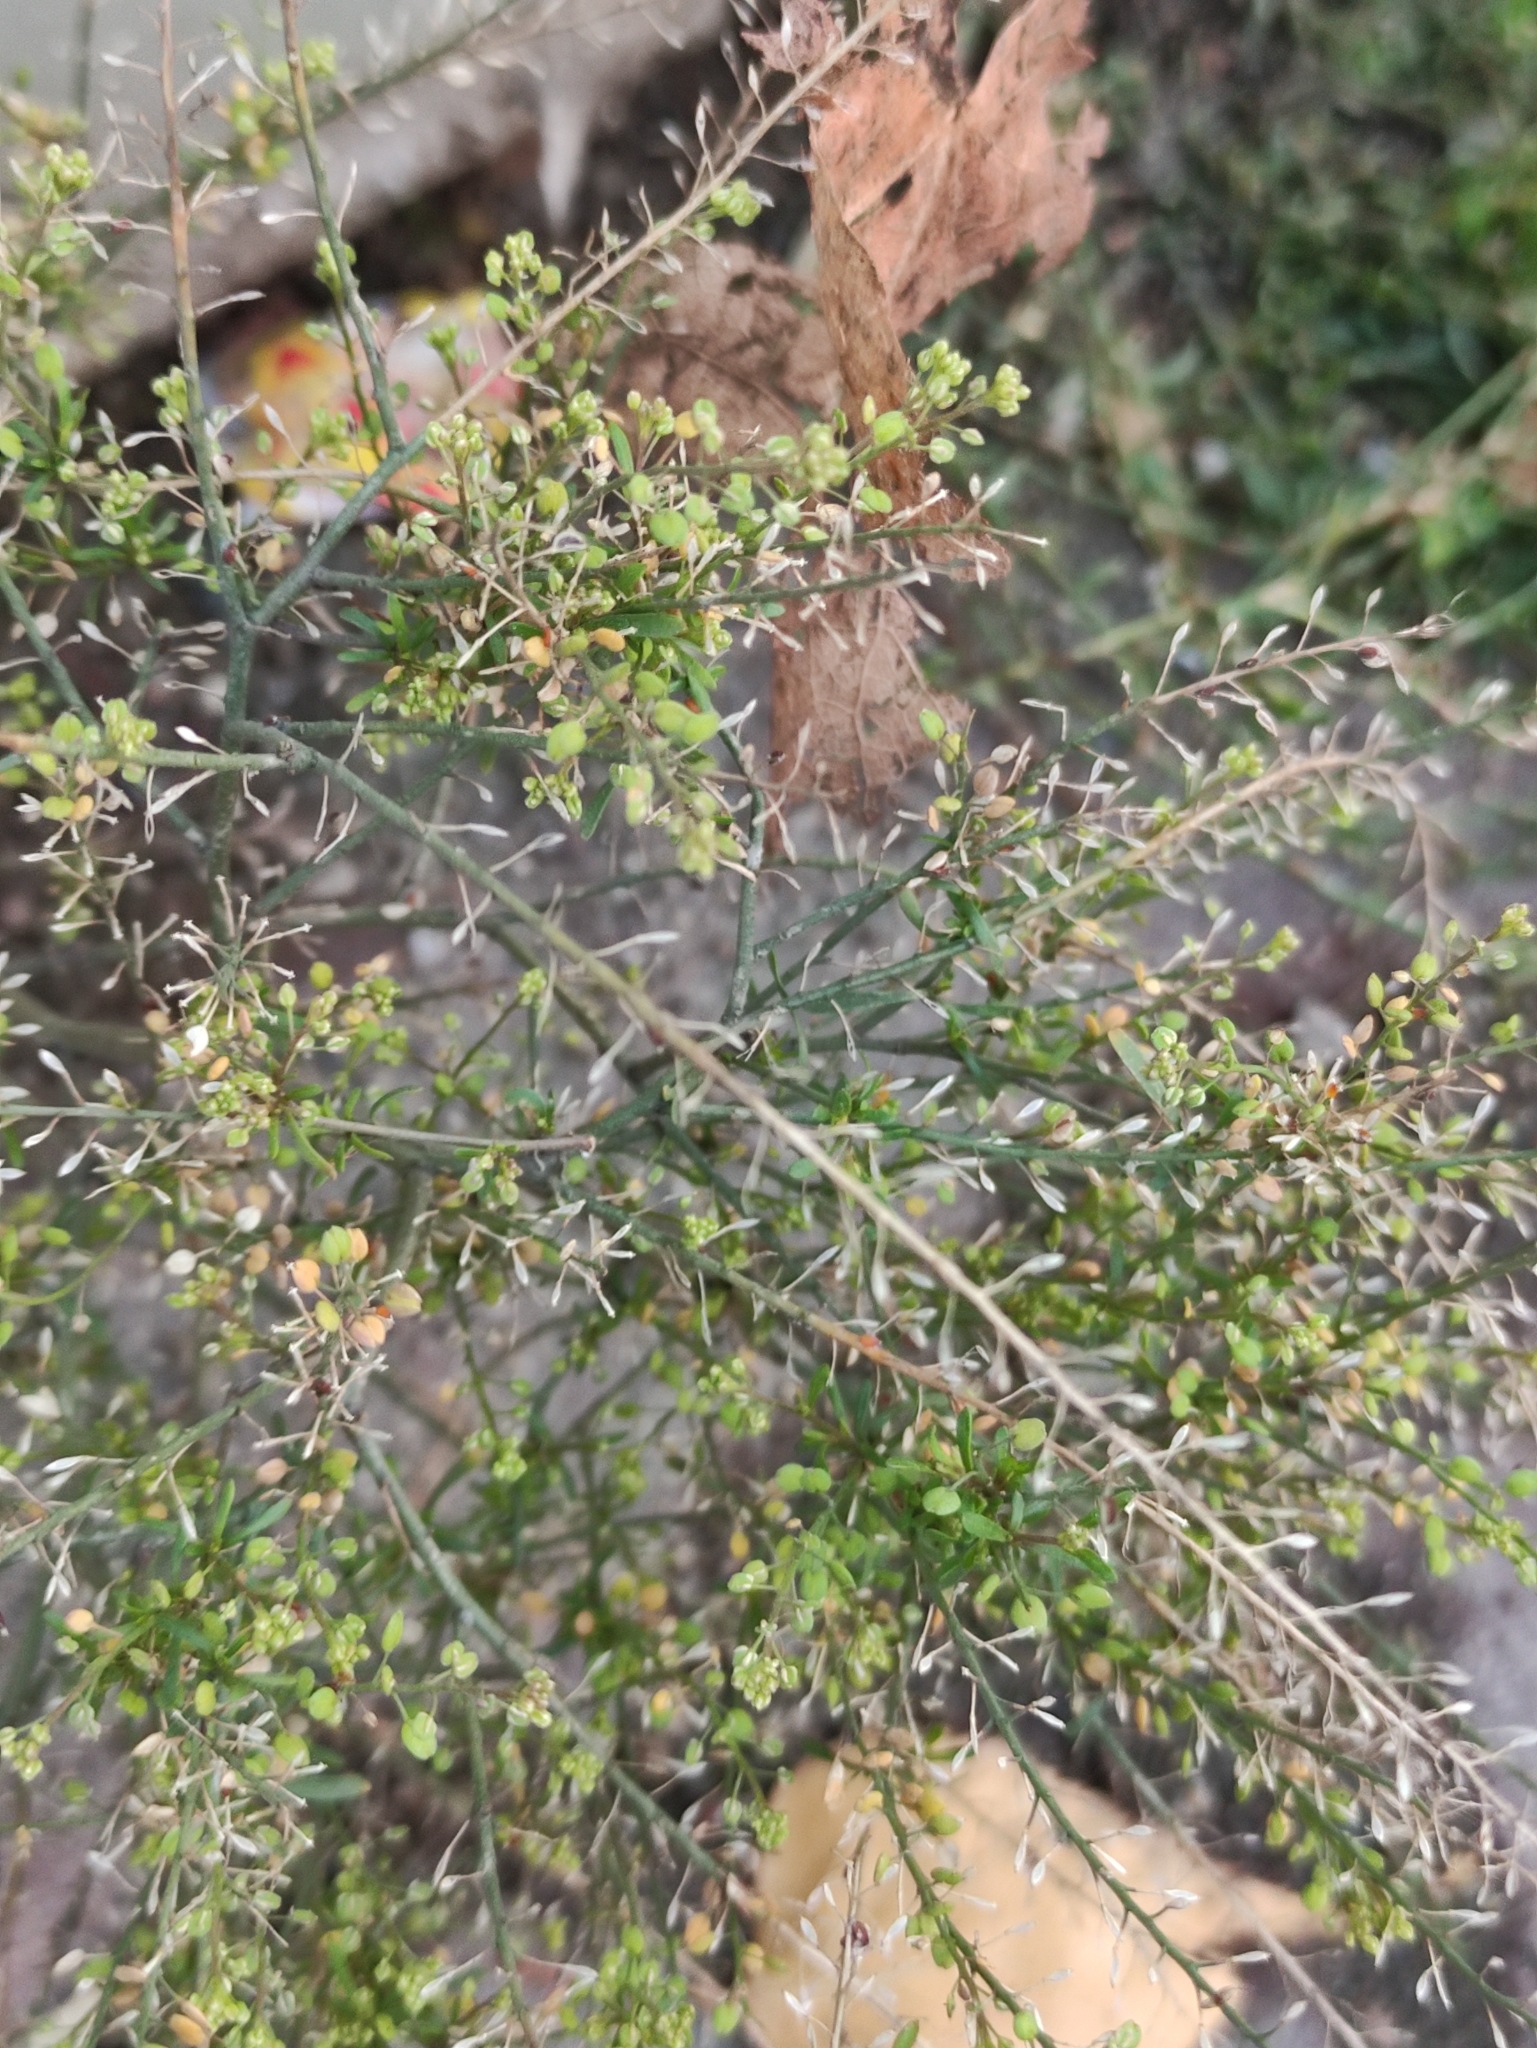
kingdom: Plantae
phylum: Tracheophyta
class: Magnoliopsida
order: Brassicales
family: Brassicaceae
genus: Lepidium
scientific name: Lepidium ruderale
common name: Narrow-leaved pepperwort
